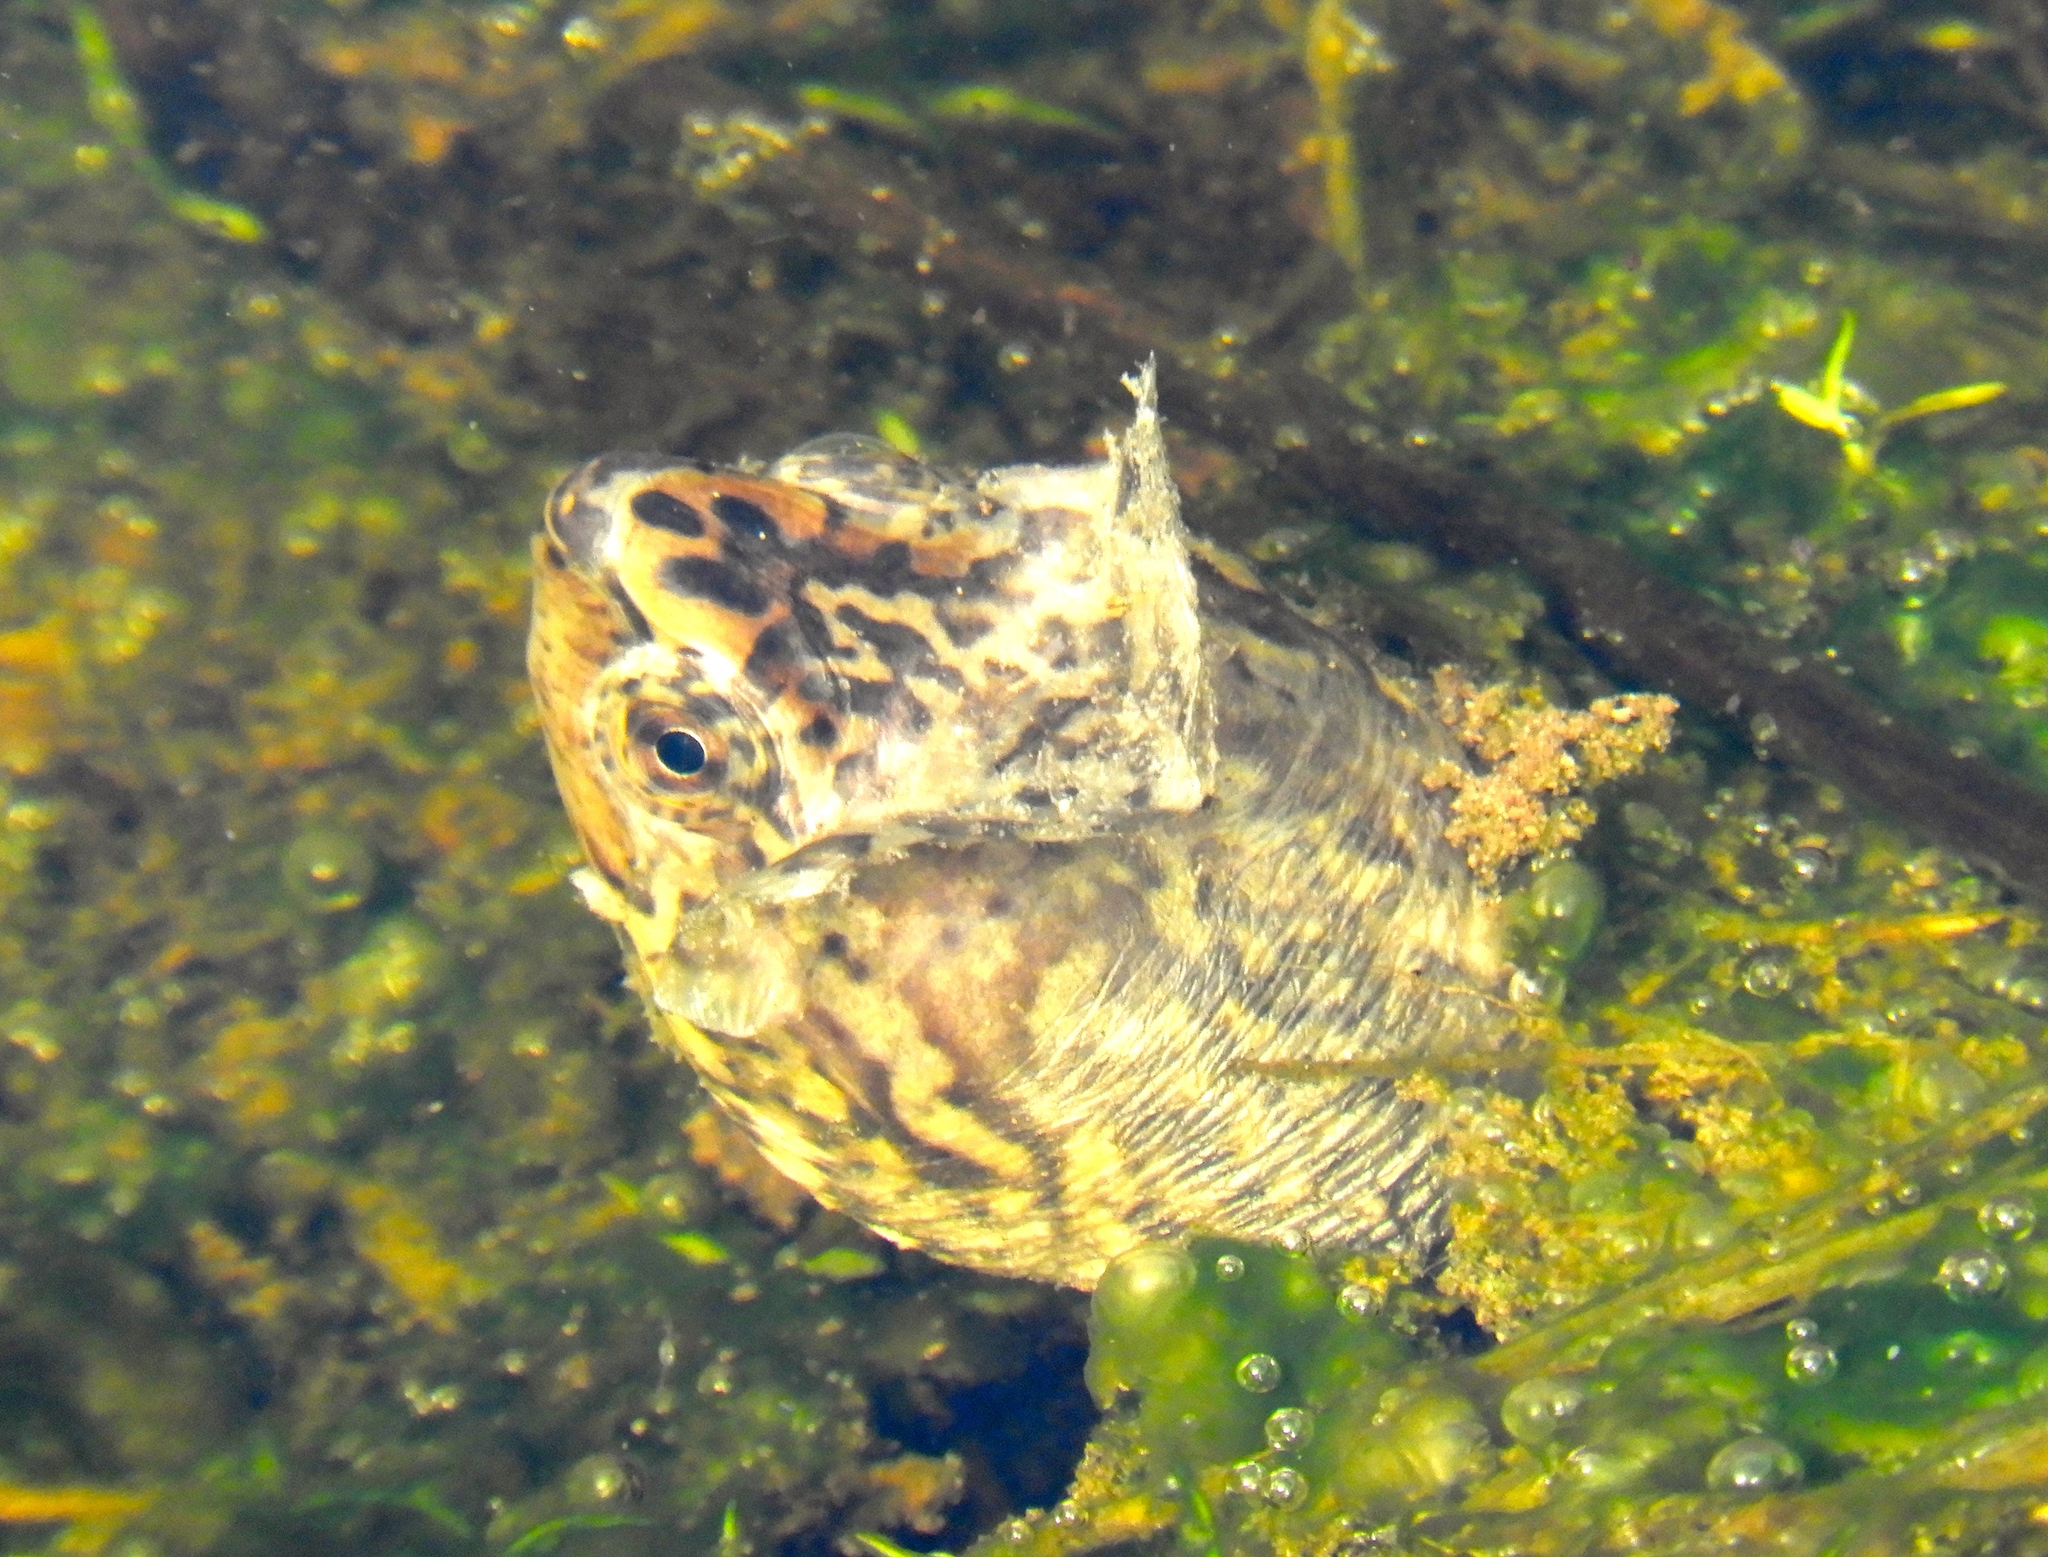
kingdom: Animalia
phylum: Chordata
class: Testudines
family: Kinosternidae
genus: Kinosternon
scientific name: Kinosternon integrum
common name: Mexican mud turtle
